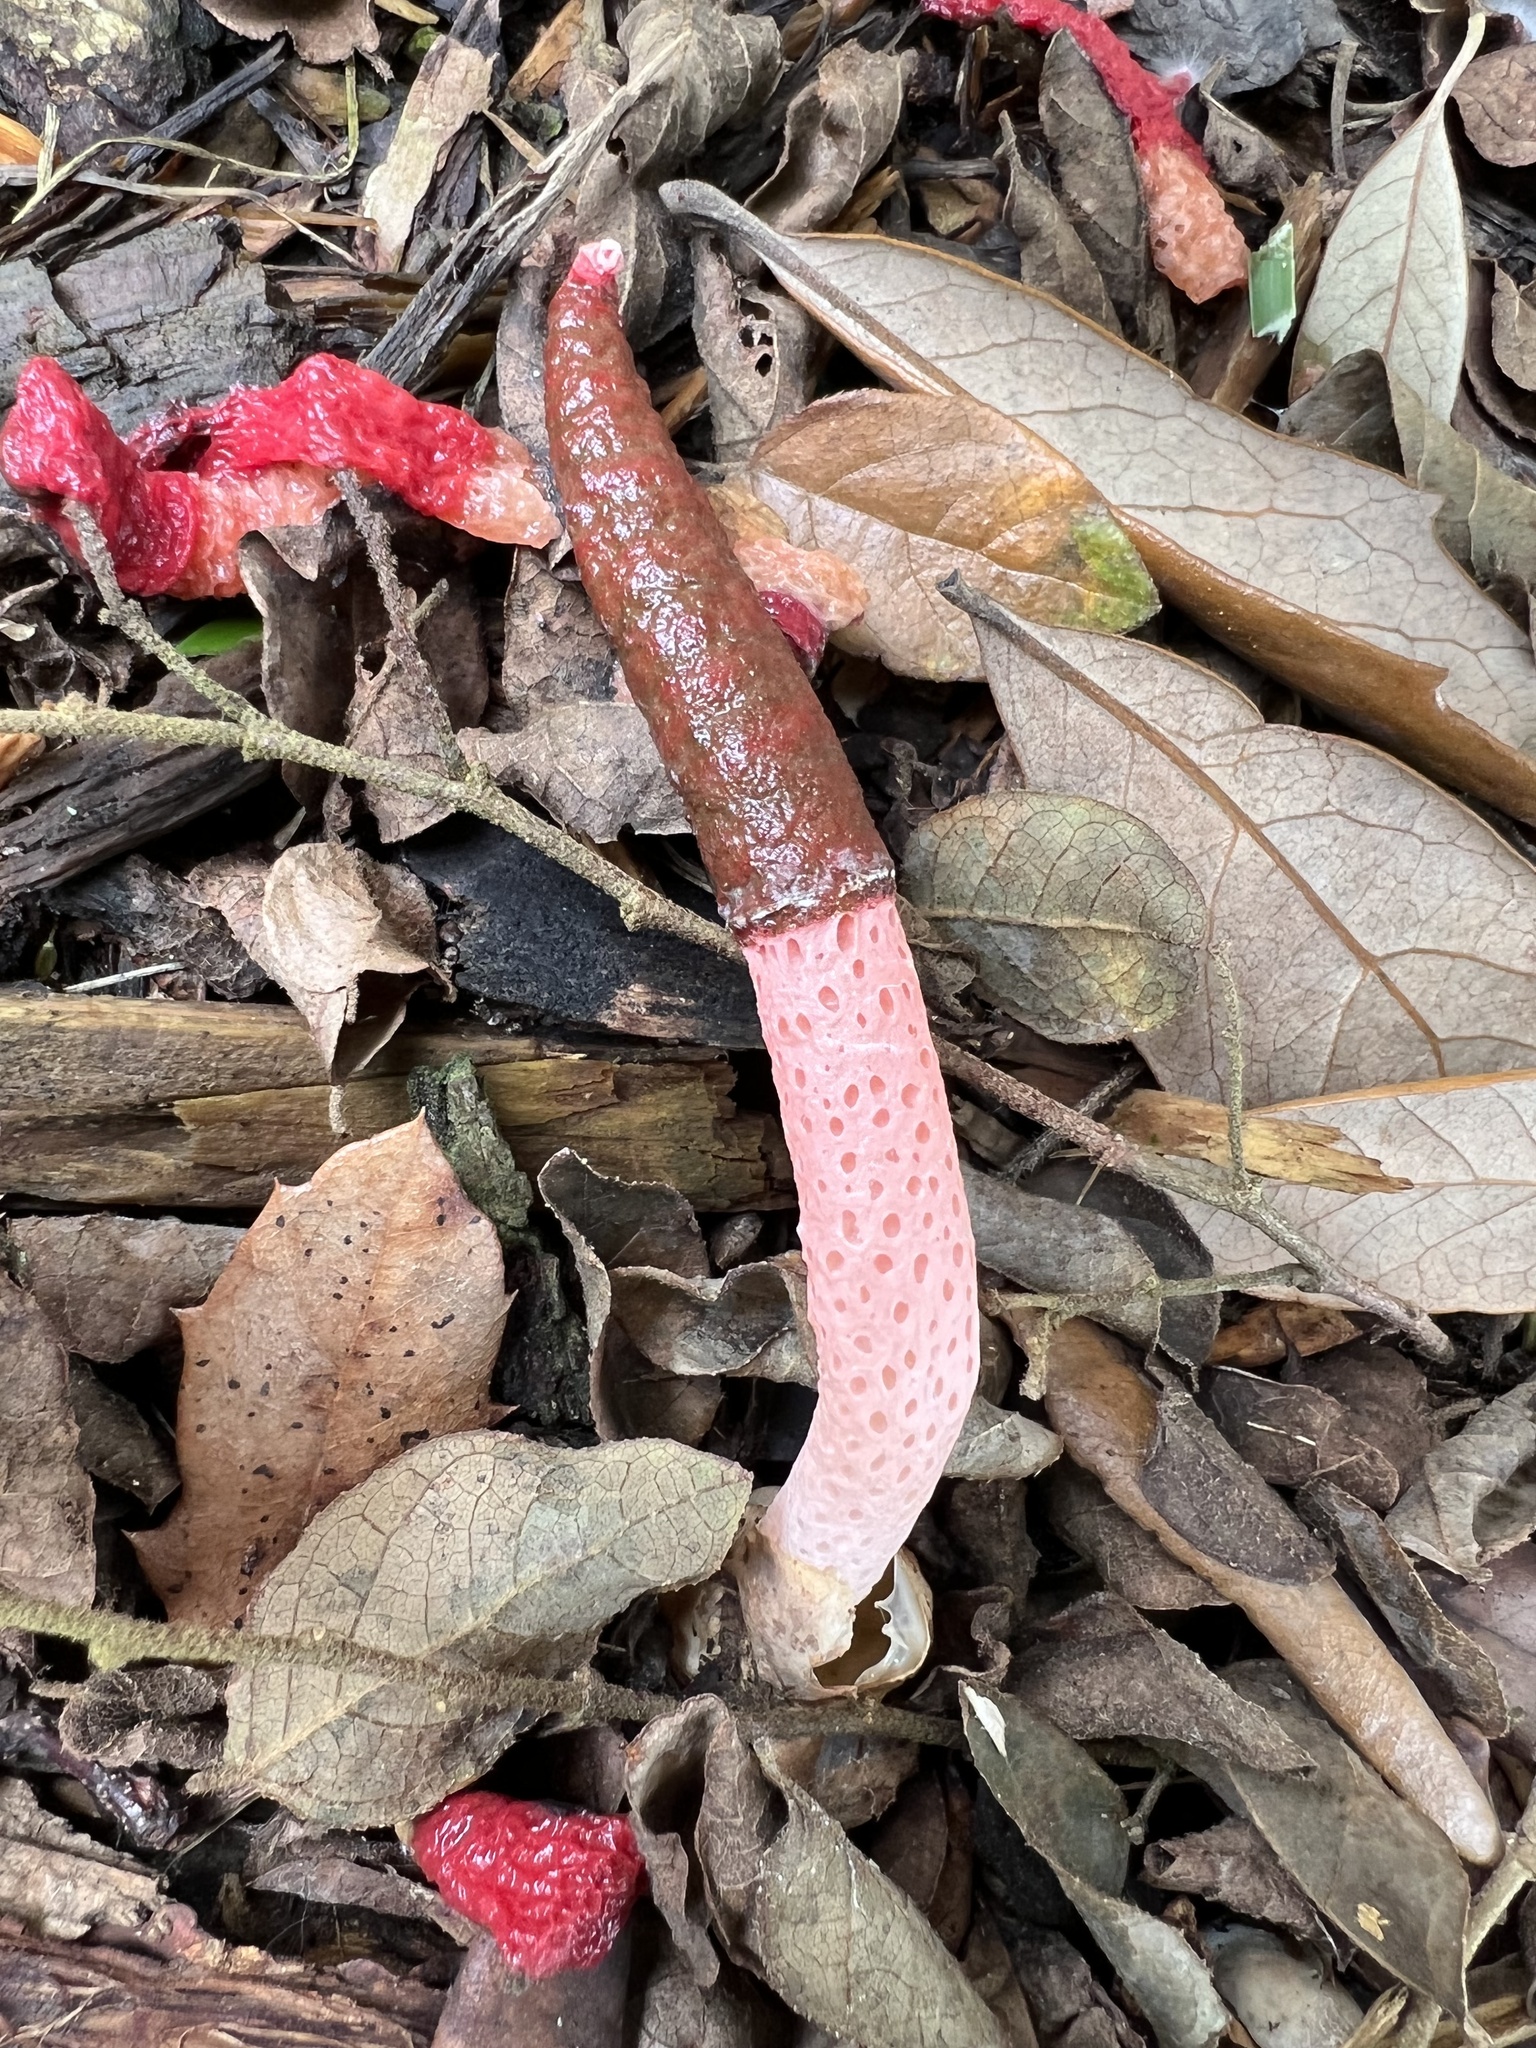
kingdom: Fungi
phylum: Basidiomycota
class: Agaricomycetes
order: Phallales
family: Phallaceae
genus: Mutinus
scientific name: Mutinus bambusinus
